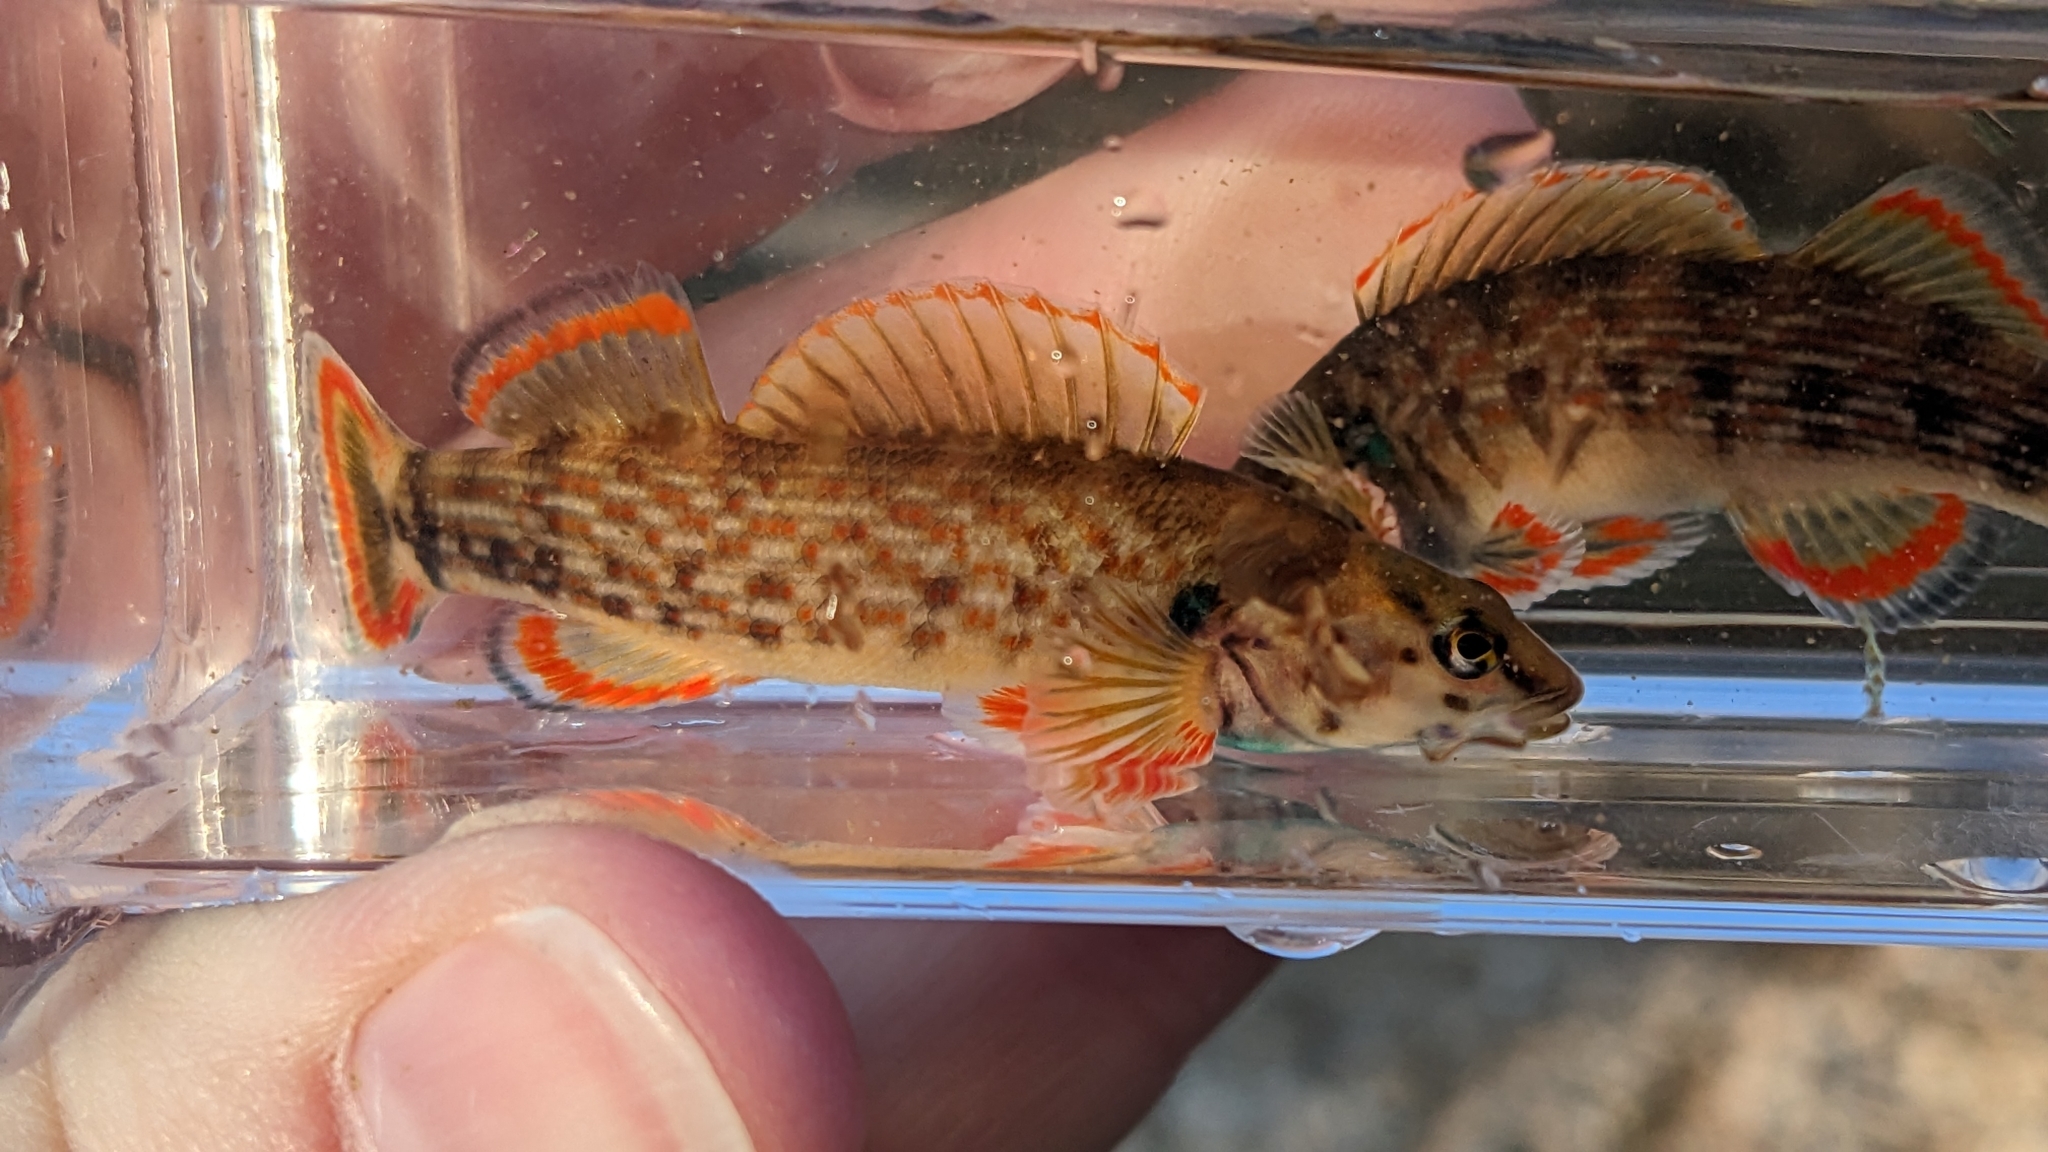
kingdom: Animalia
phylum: Chordata
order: Perciformes
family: Percidae
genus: Etheostoma
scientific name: Etheostoma rufilineatum
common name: Redline darter
